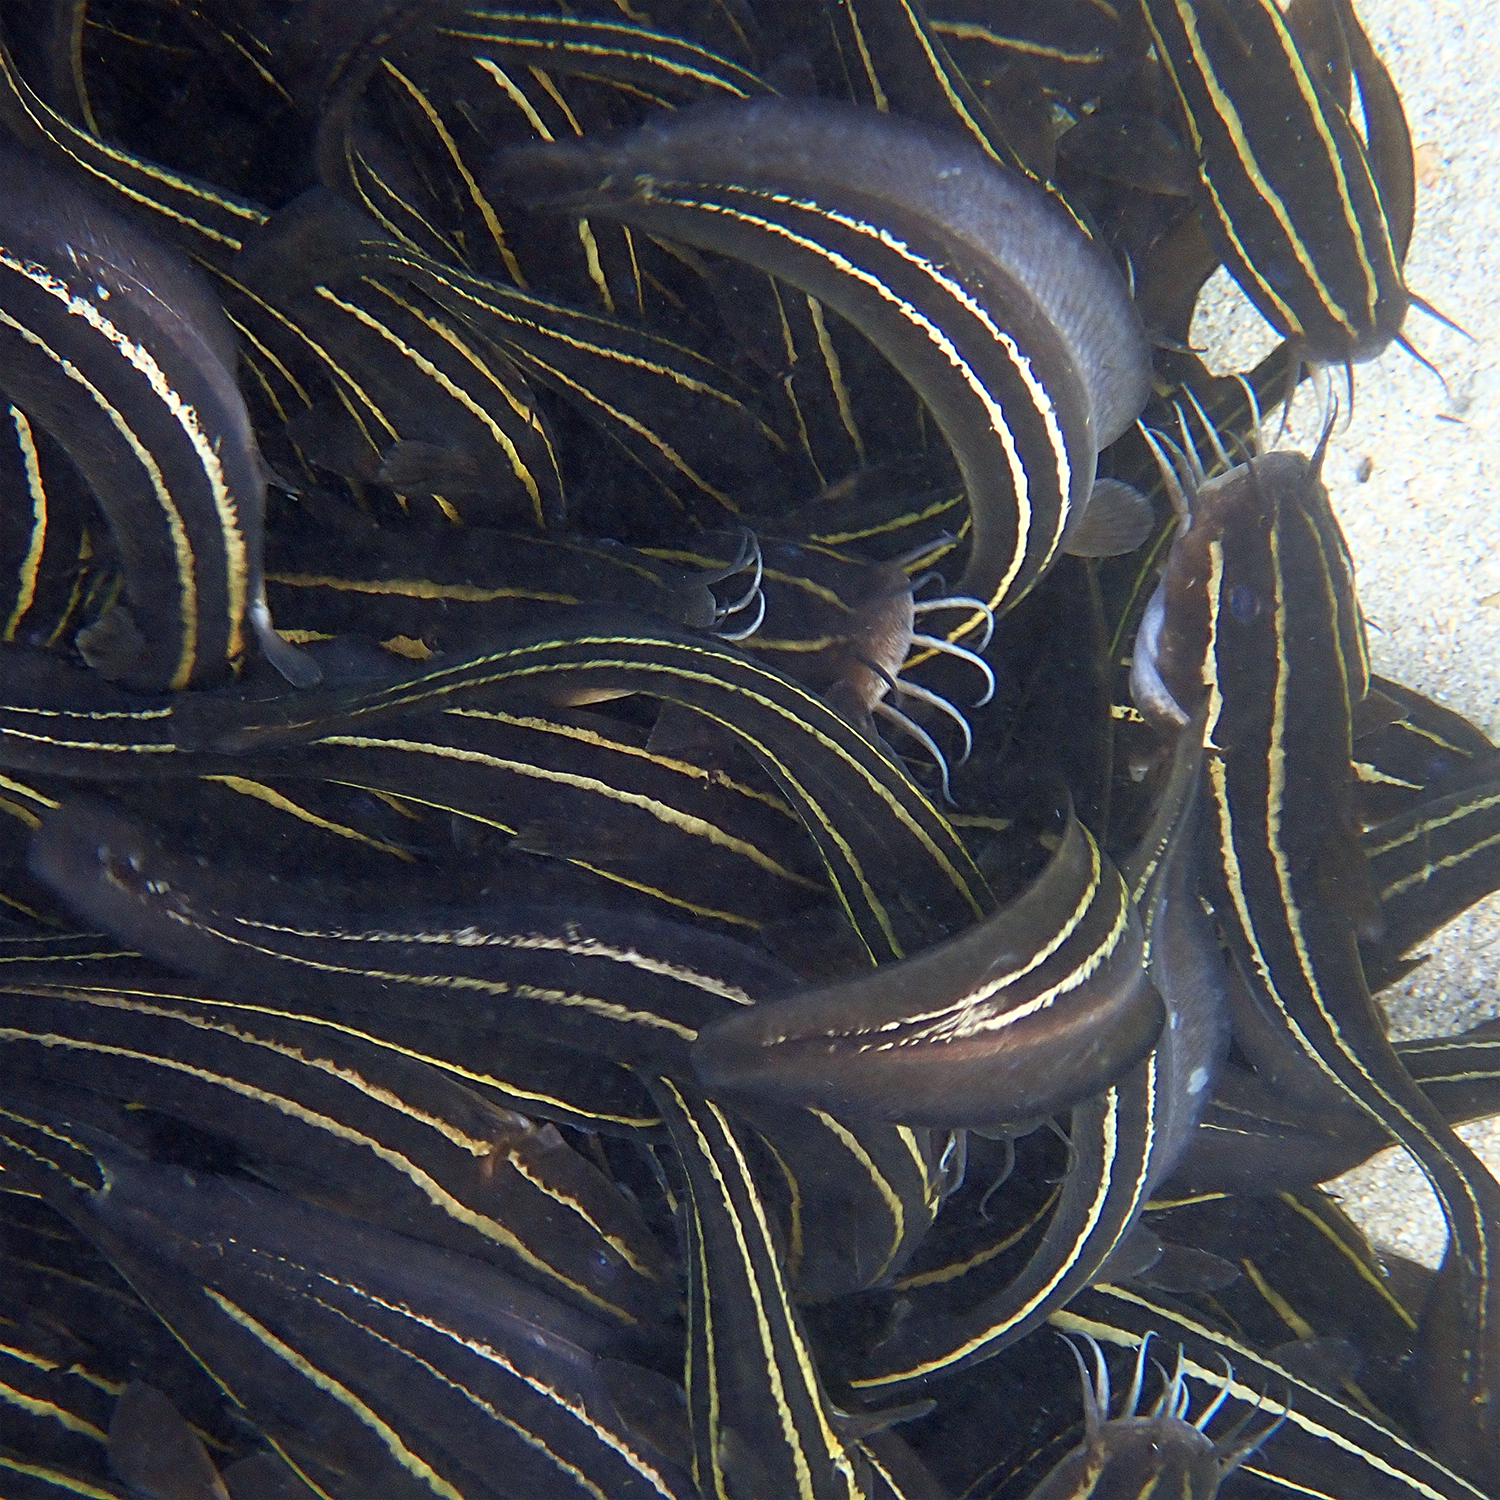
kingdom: Animalia
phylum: Chordata
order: Siluriformes
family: Plotosidae
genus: Plotosus
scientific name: Plotosus lineatus
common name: Striped eel catfish
